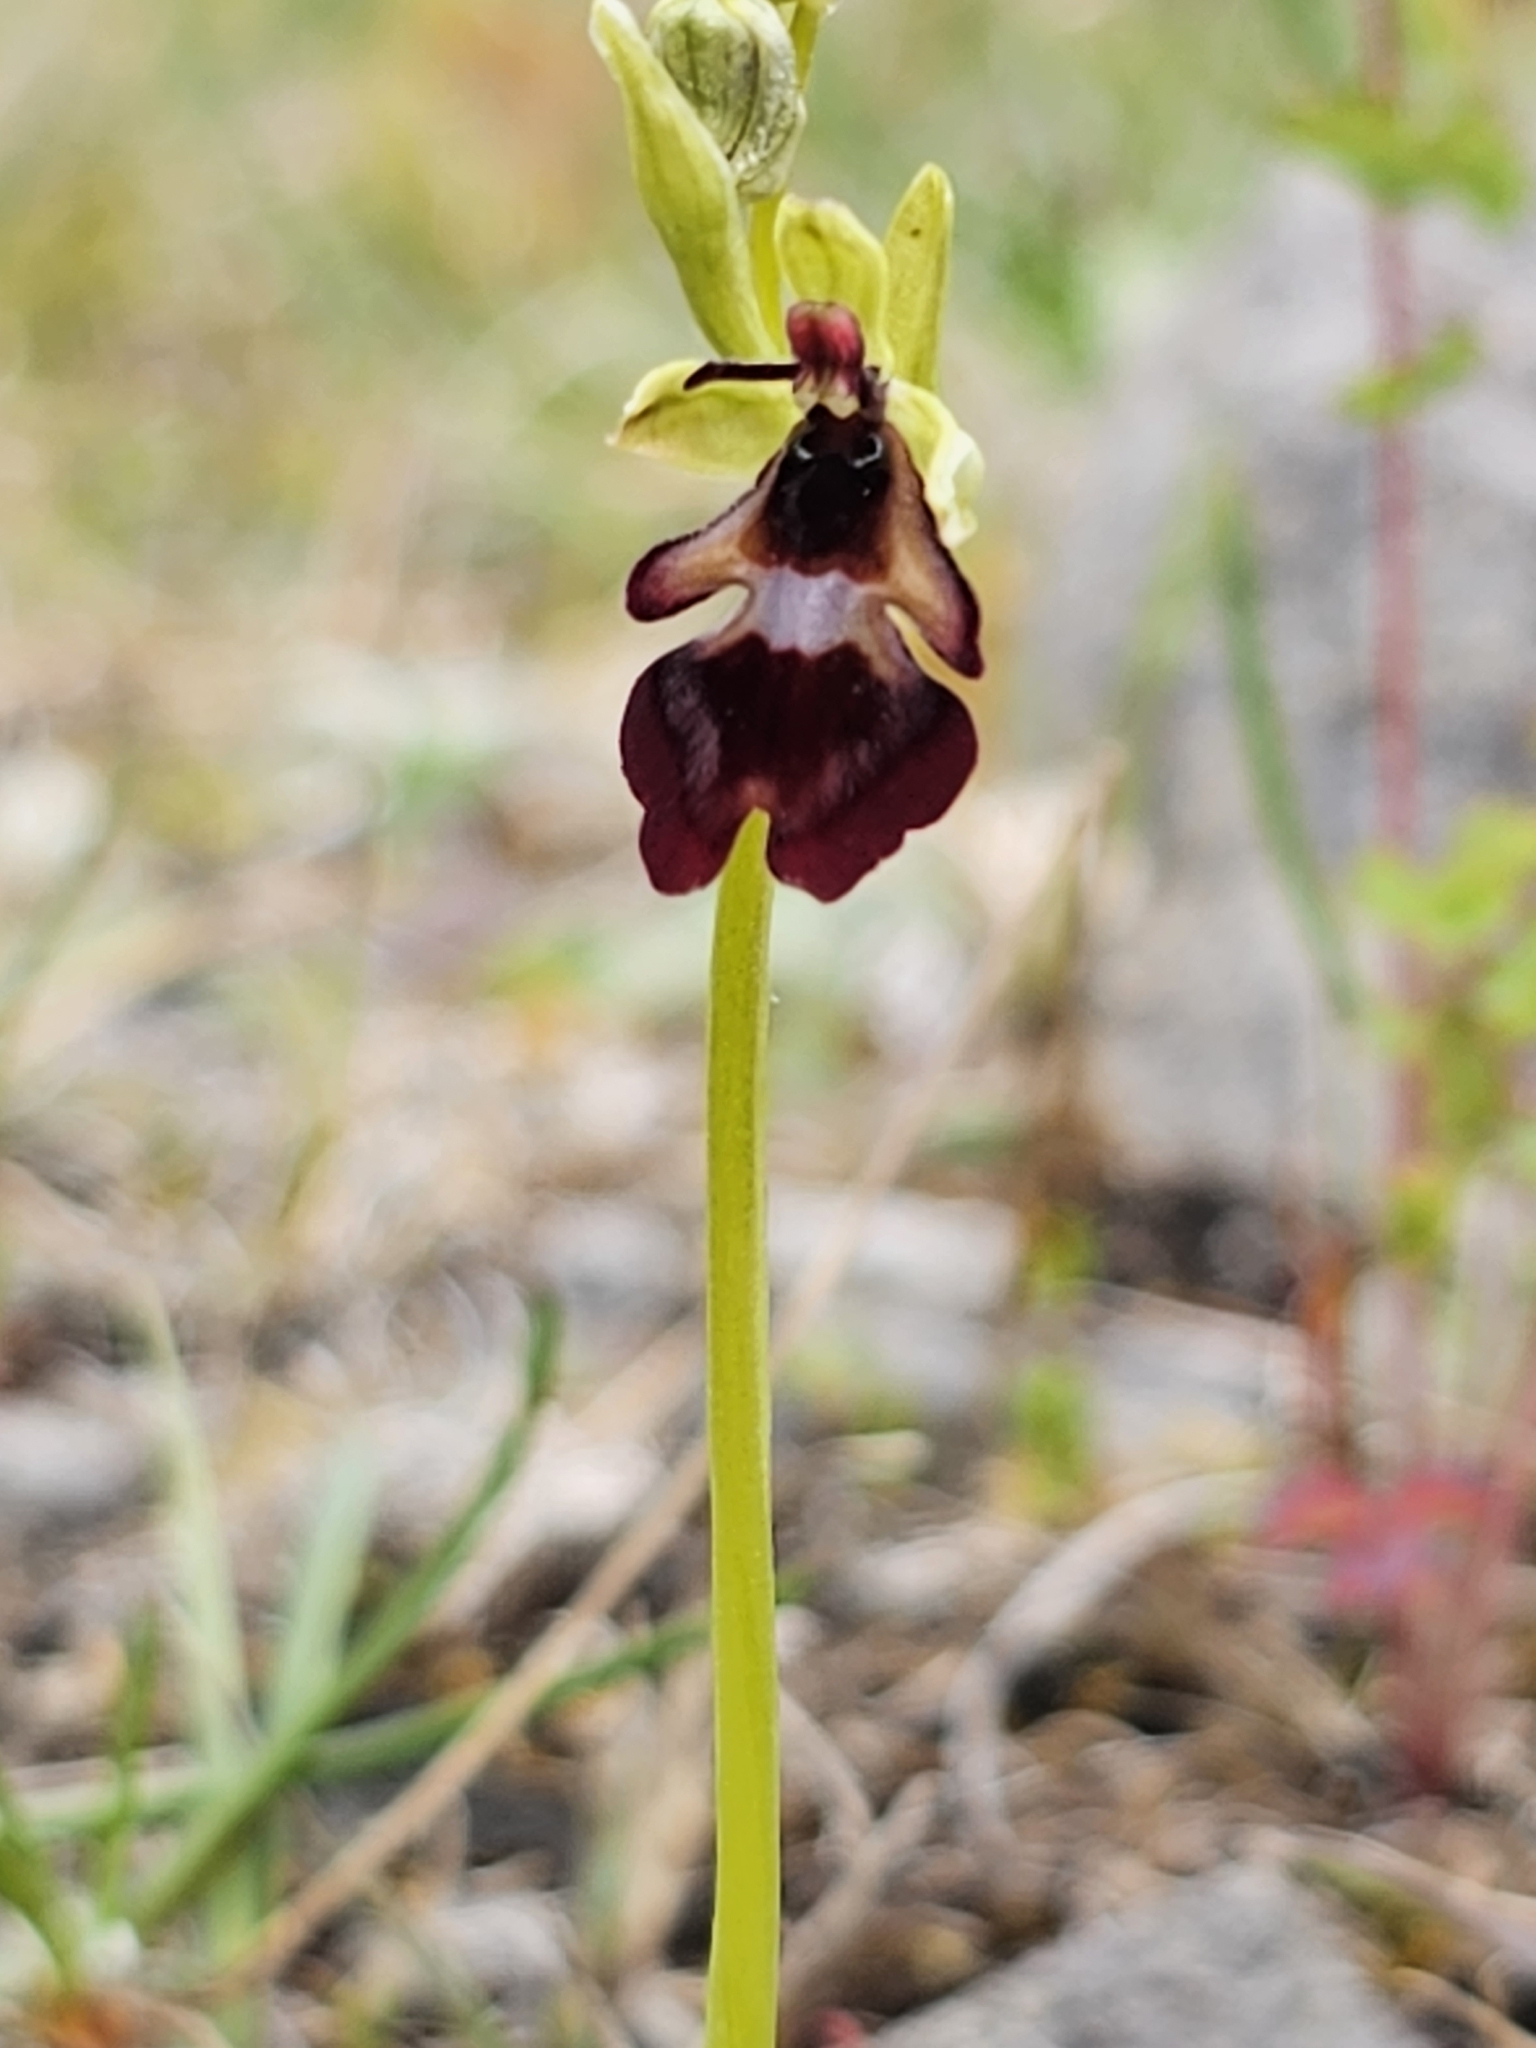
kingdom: Plantae
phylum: Tracheophyta
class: Liliopsida
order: Asparagales
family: Orchidaceae
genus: Ophrys
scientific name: Ophrys insectifera
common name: Fly orchid
